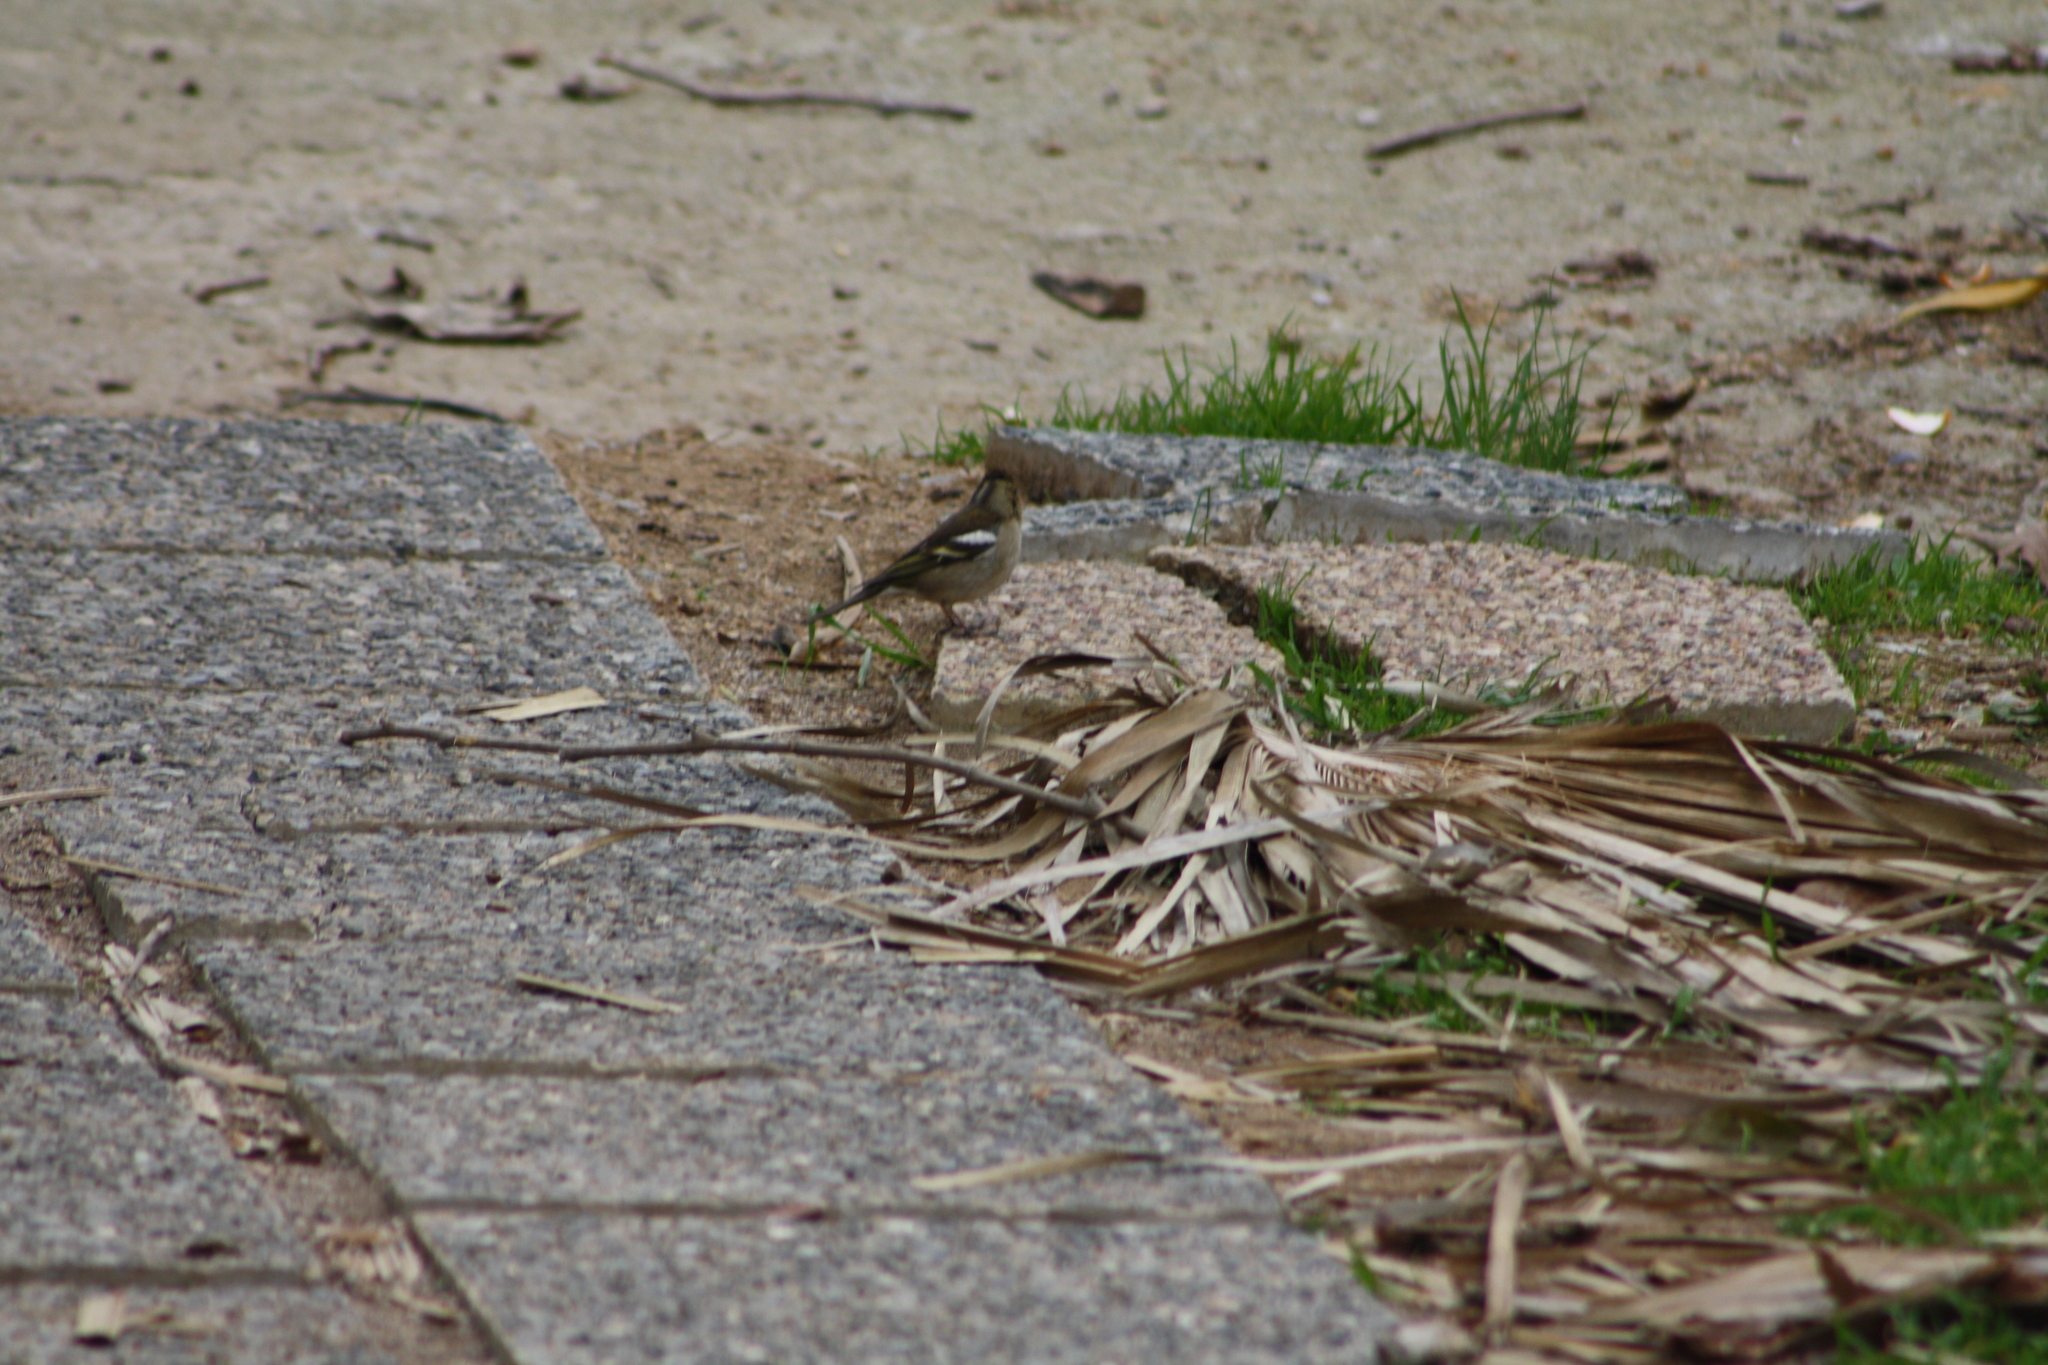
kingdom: Animalia
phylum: Chordata
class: Aves
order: Passeriformes
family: Fringillidae
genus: Fringilla
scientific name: Fringilla coelebs
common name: Common chaffinch
